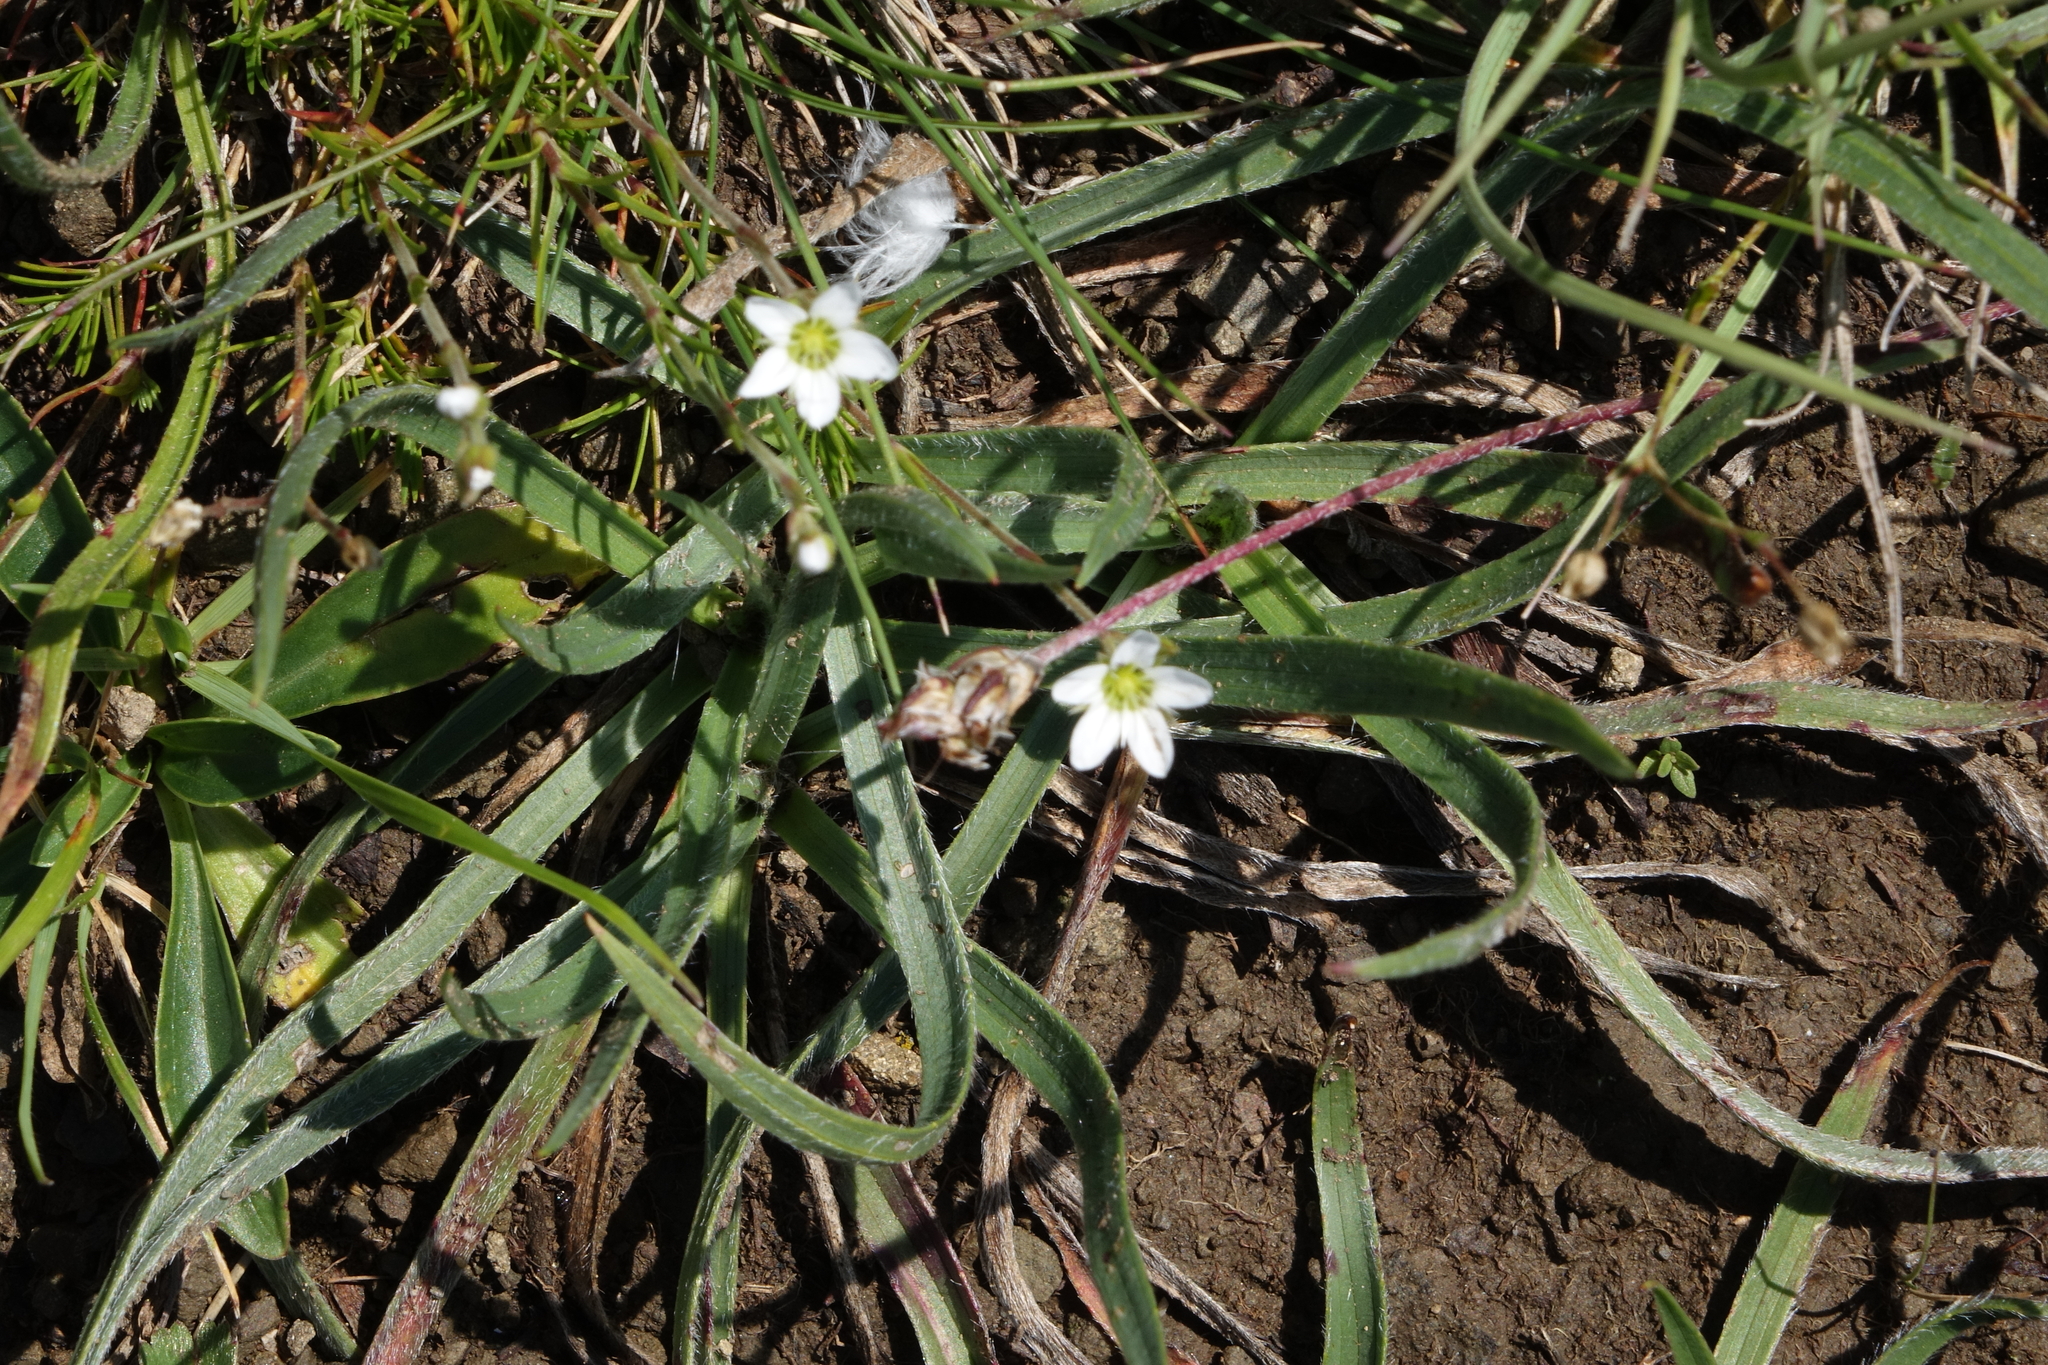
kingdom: Plantae
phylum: Tracheophyta
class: Magnoliopsida
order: Caryophyllales
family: Caryophyllaceae
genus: Minuartia
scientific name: Minuartia hirsuta
